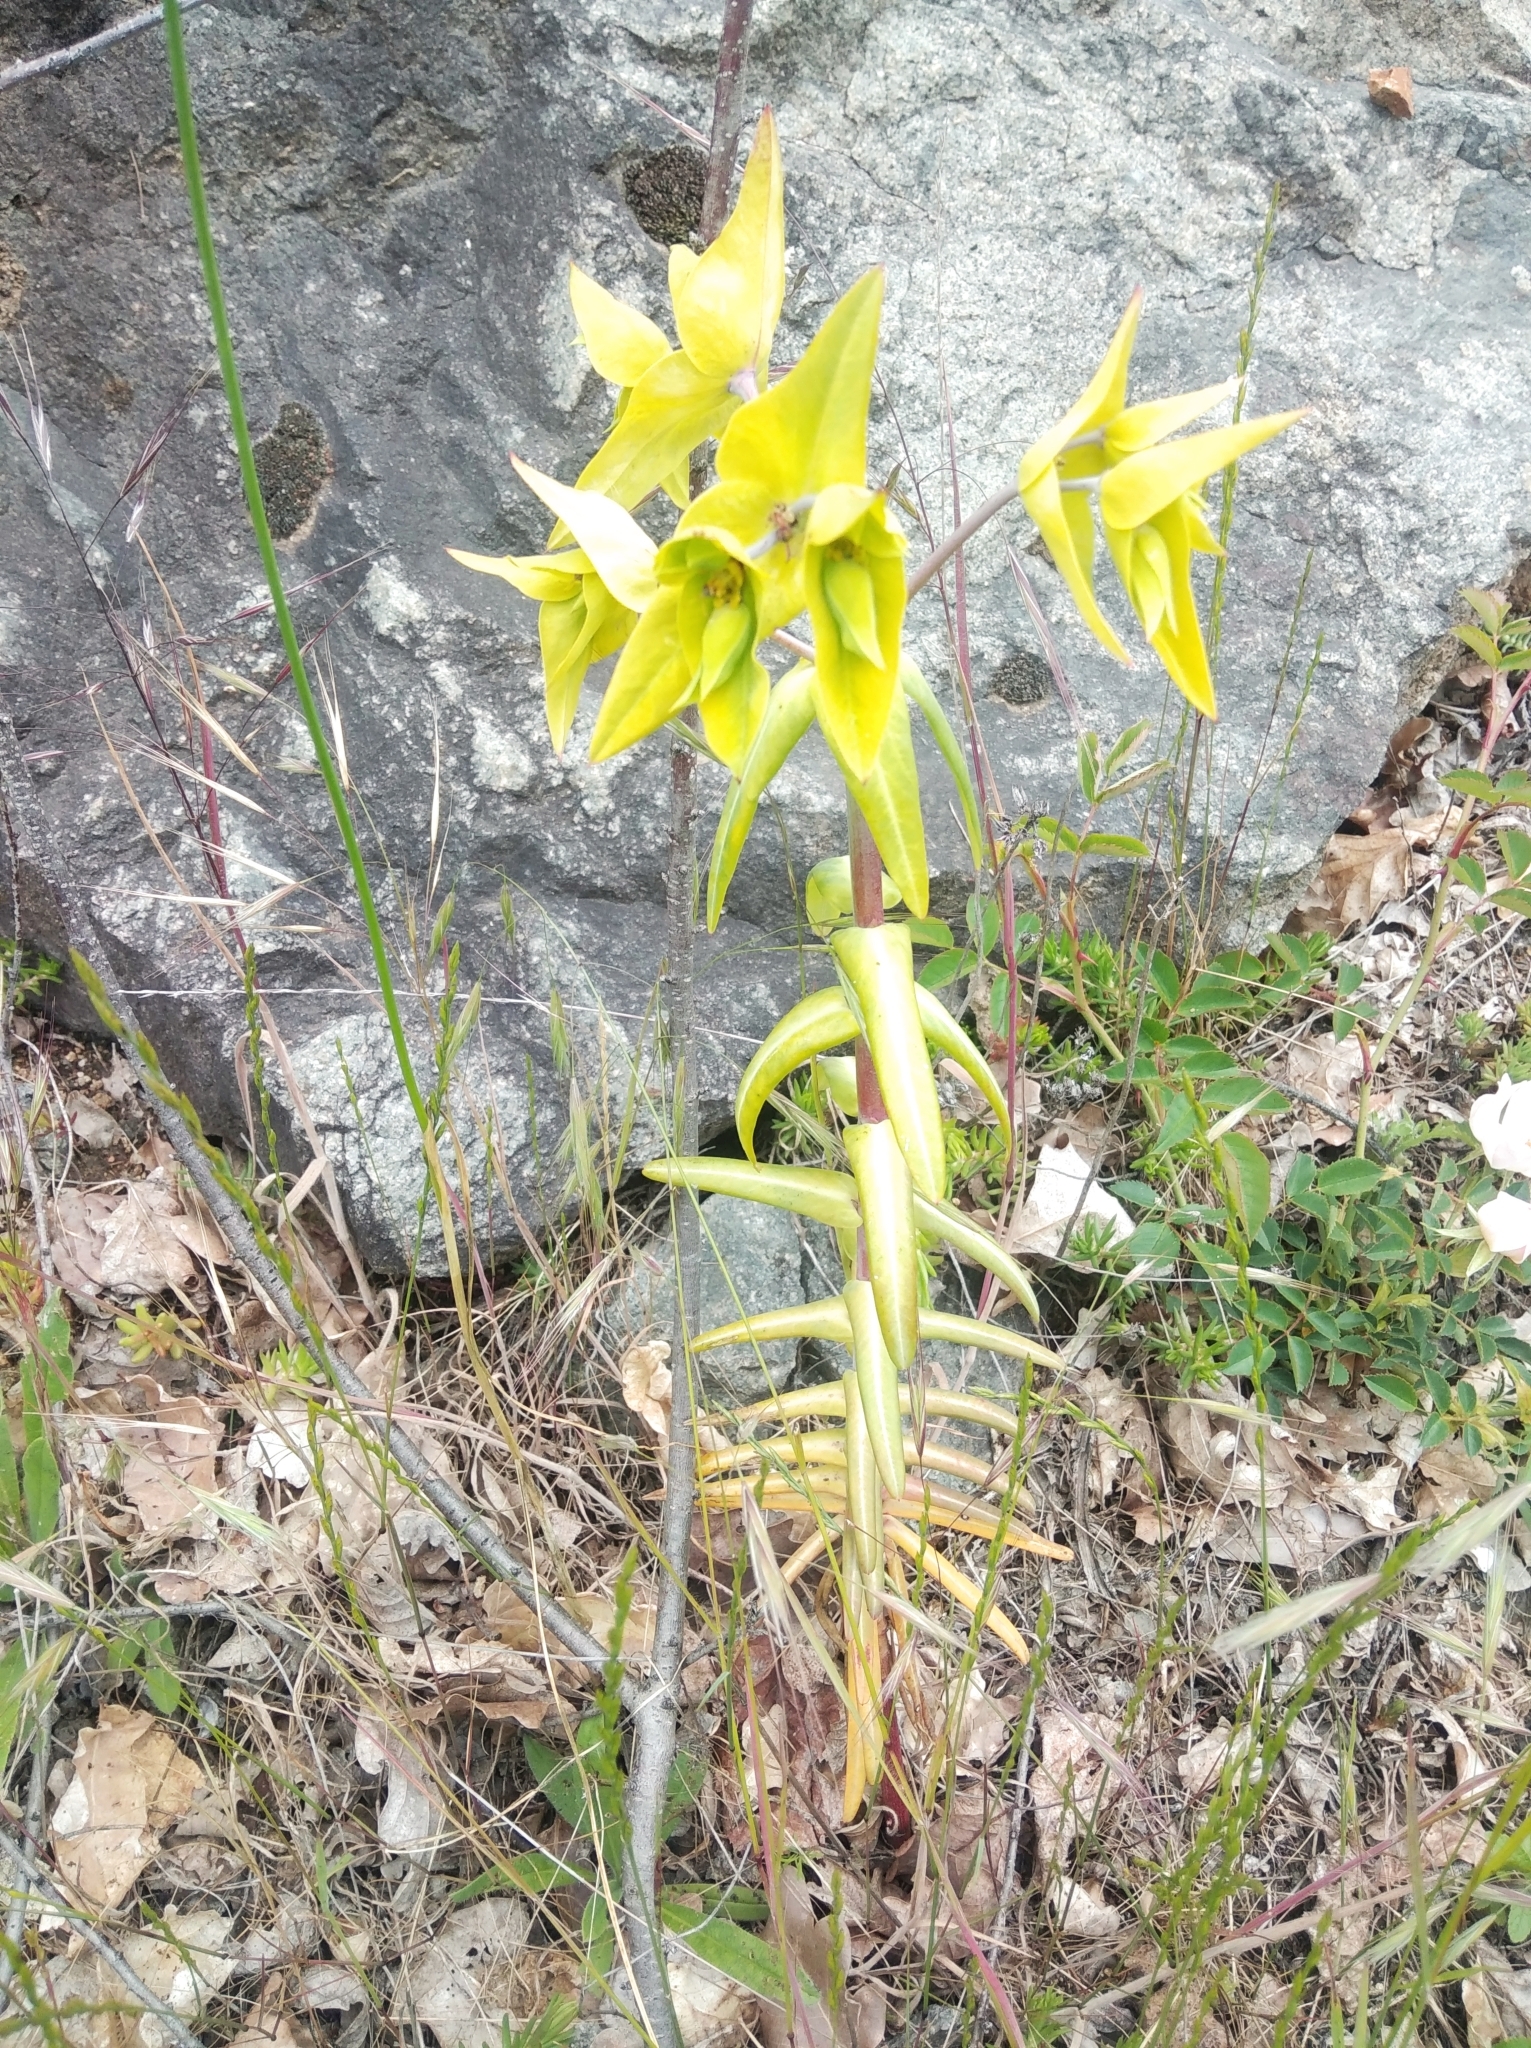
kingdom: Plantae
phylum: Tracheophyta
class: Magnoliopsida
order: Malpighiales
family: Euphorbiaceae
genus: Euphorbia
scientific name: Euphorbia lathyris
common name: Caper spurge
